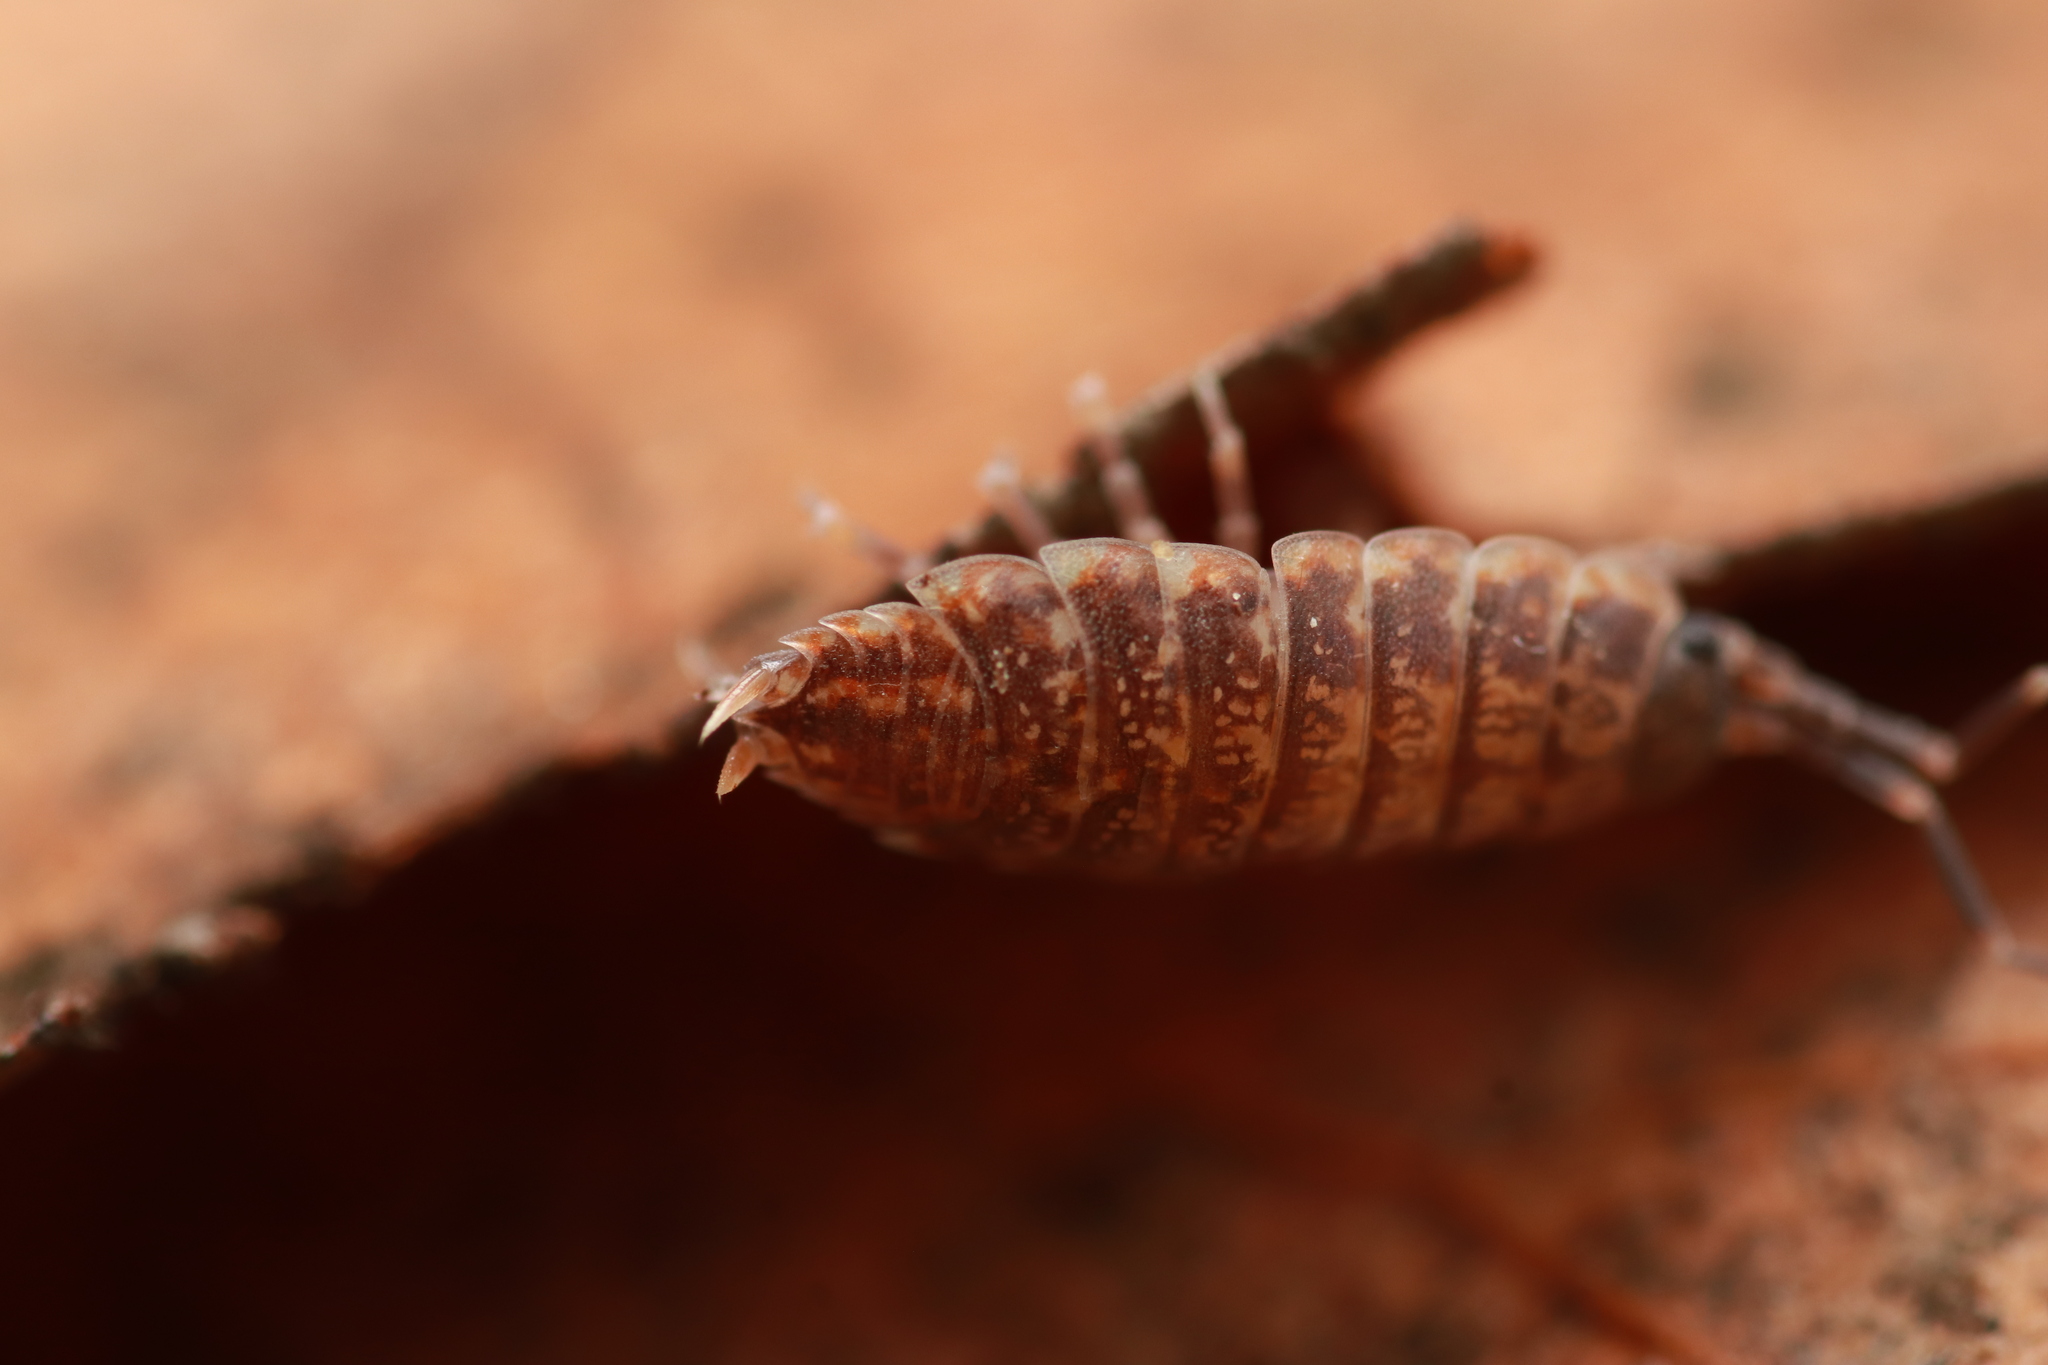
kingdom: Animalia
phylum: Arthropoda
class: Malacostraca
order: Isopoda
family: Porcellionidae
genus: Caeroplastes
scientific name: Caeroplastes porphyrivagus
